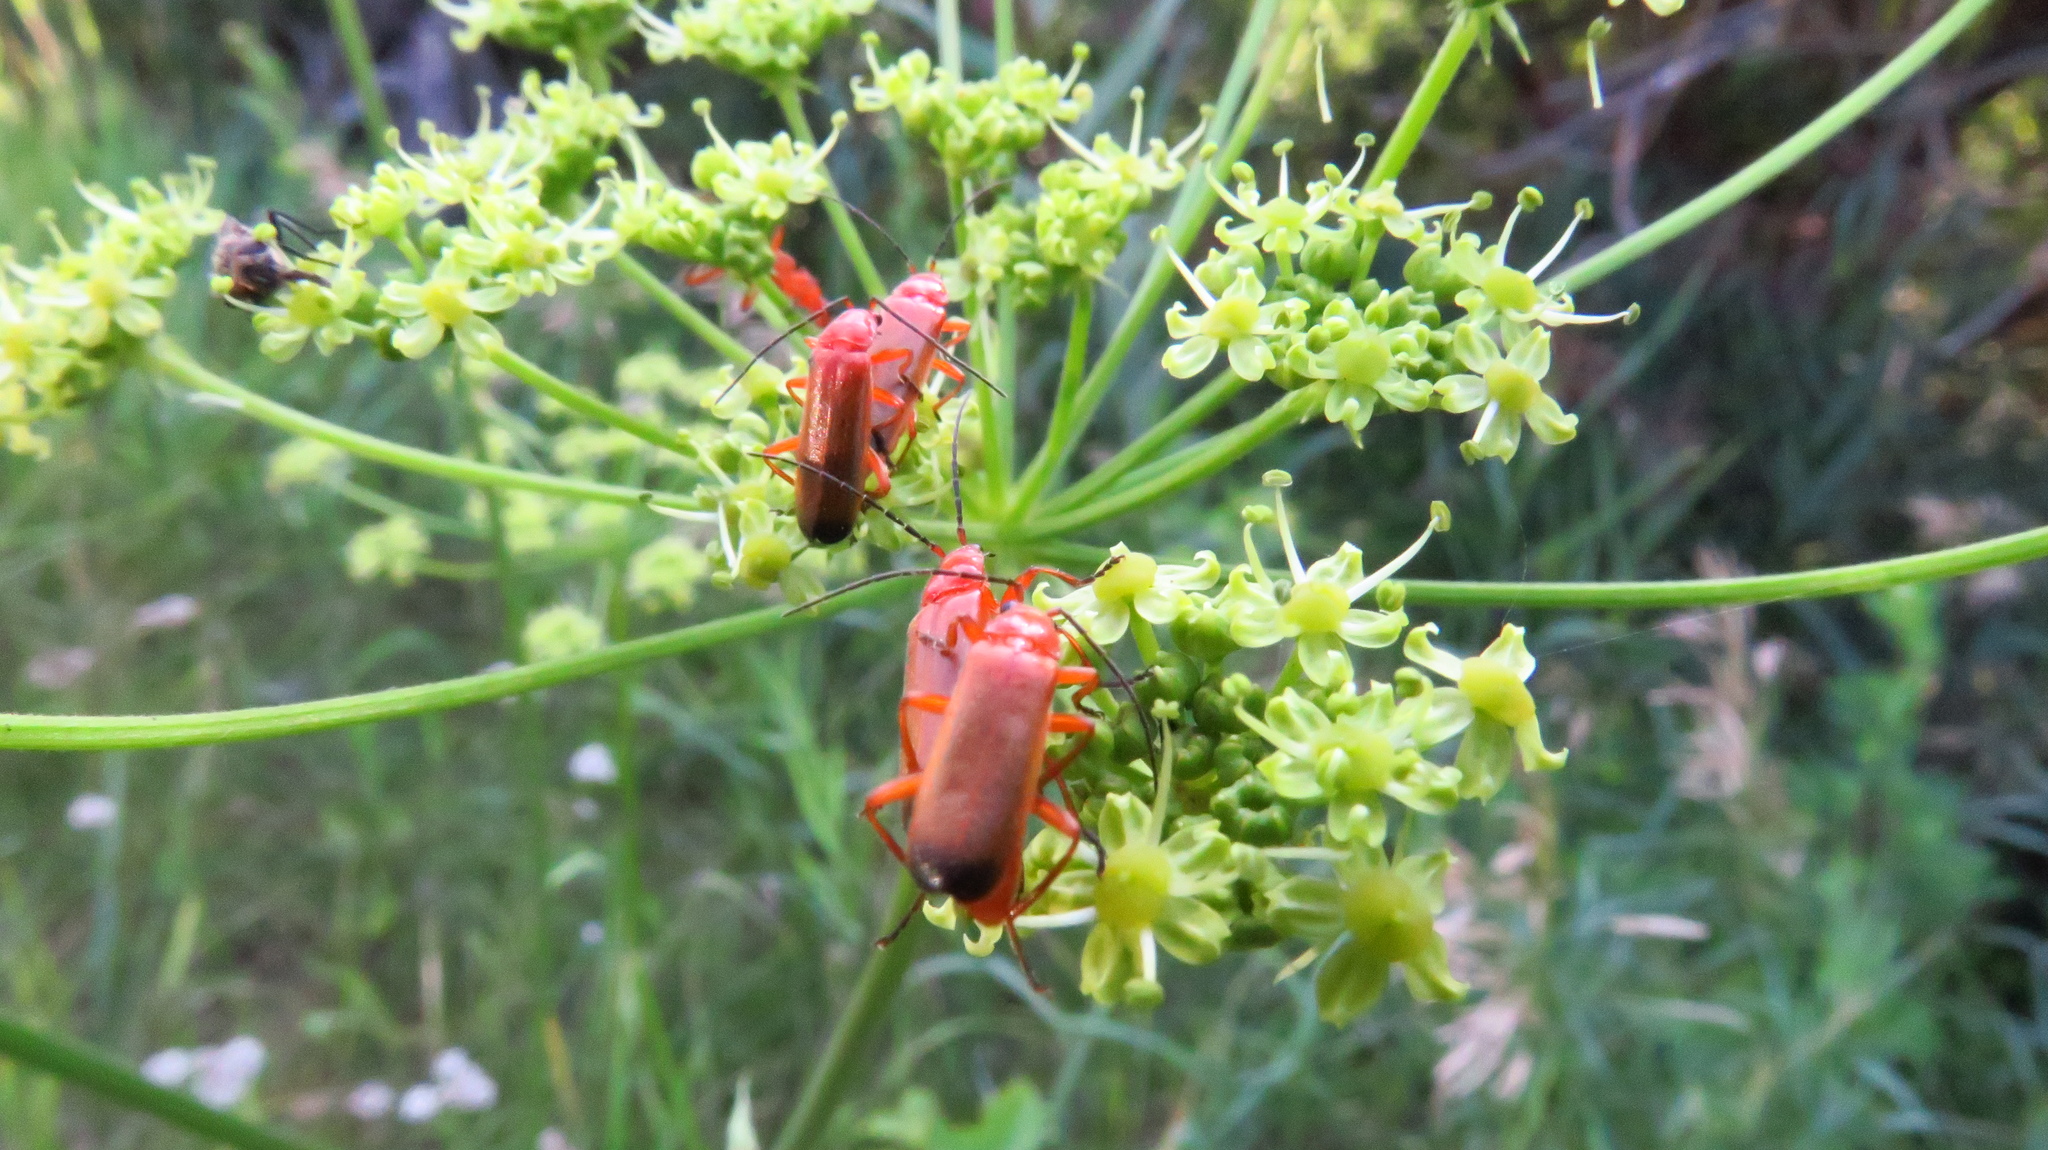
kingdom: Animalia
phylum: Arthropoda
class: Insecta
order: Coleoptera
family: Cantharidae
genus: Rhagonycha
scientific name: Rhagonycha fulva
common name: Common red soldier beetle
